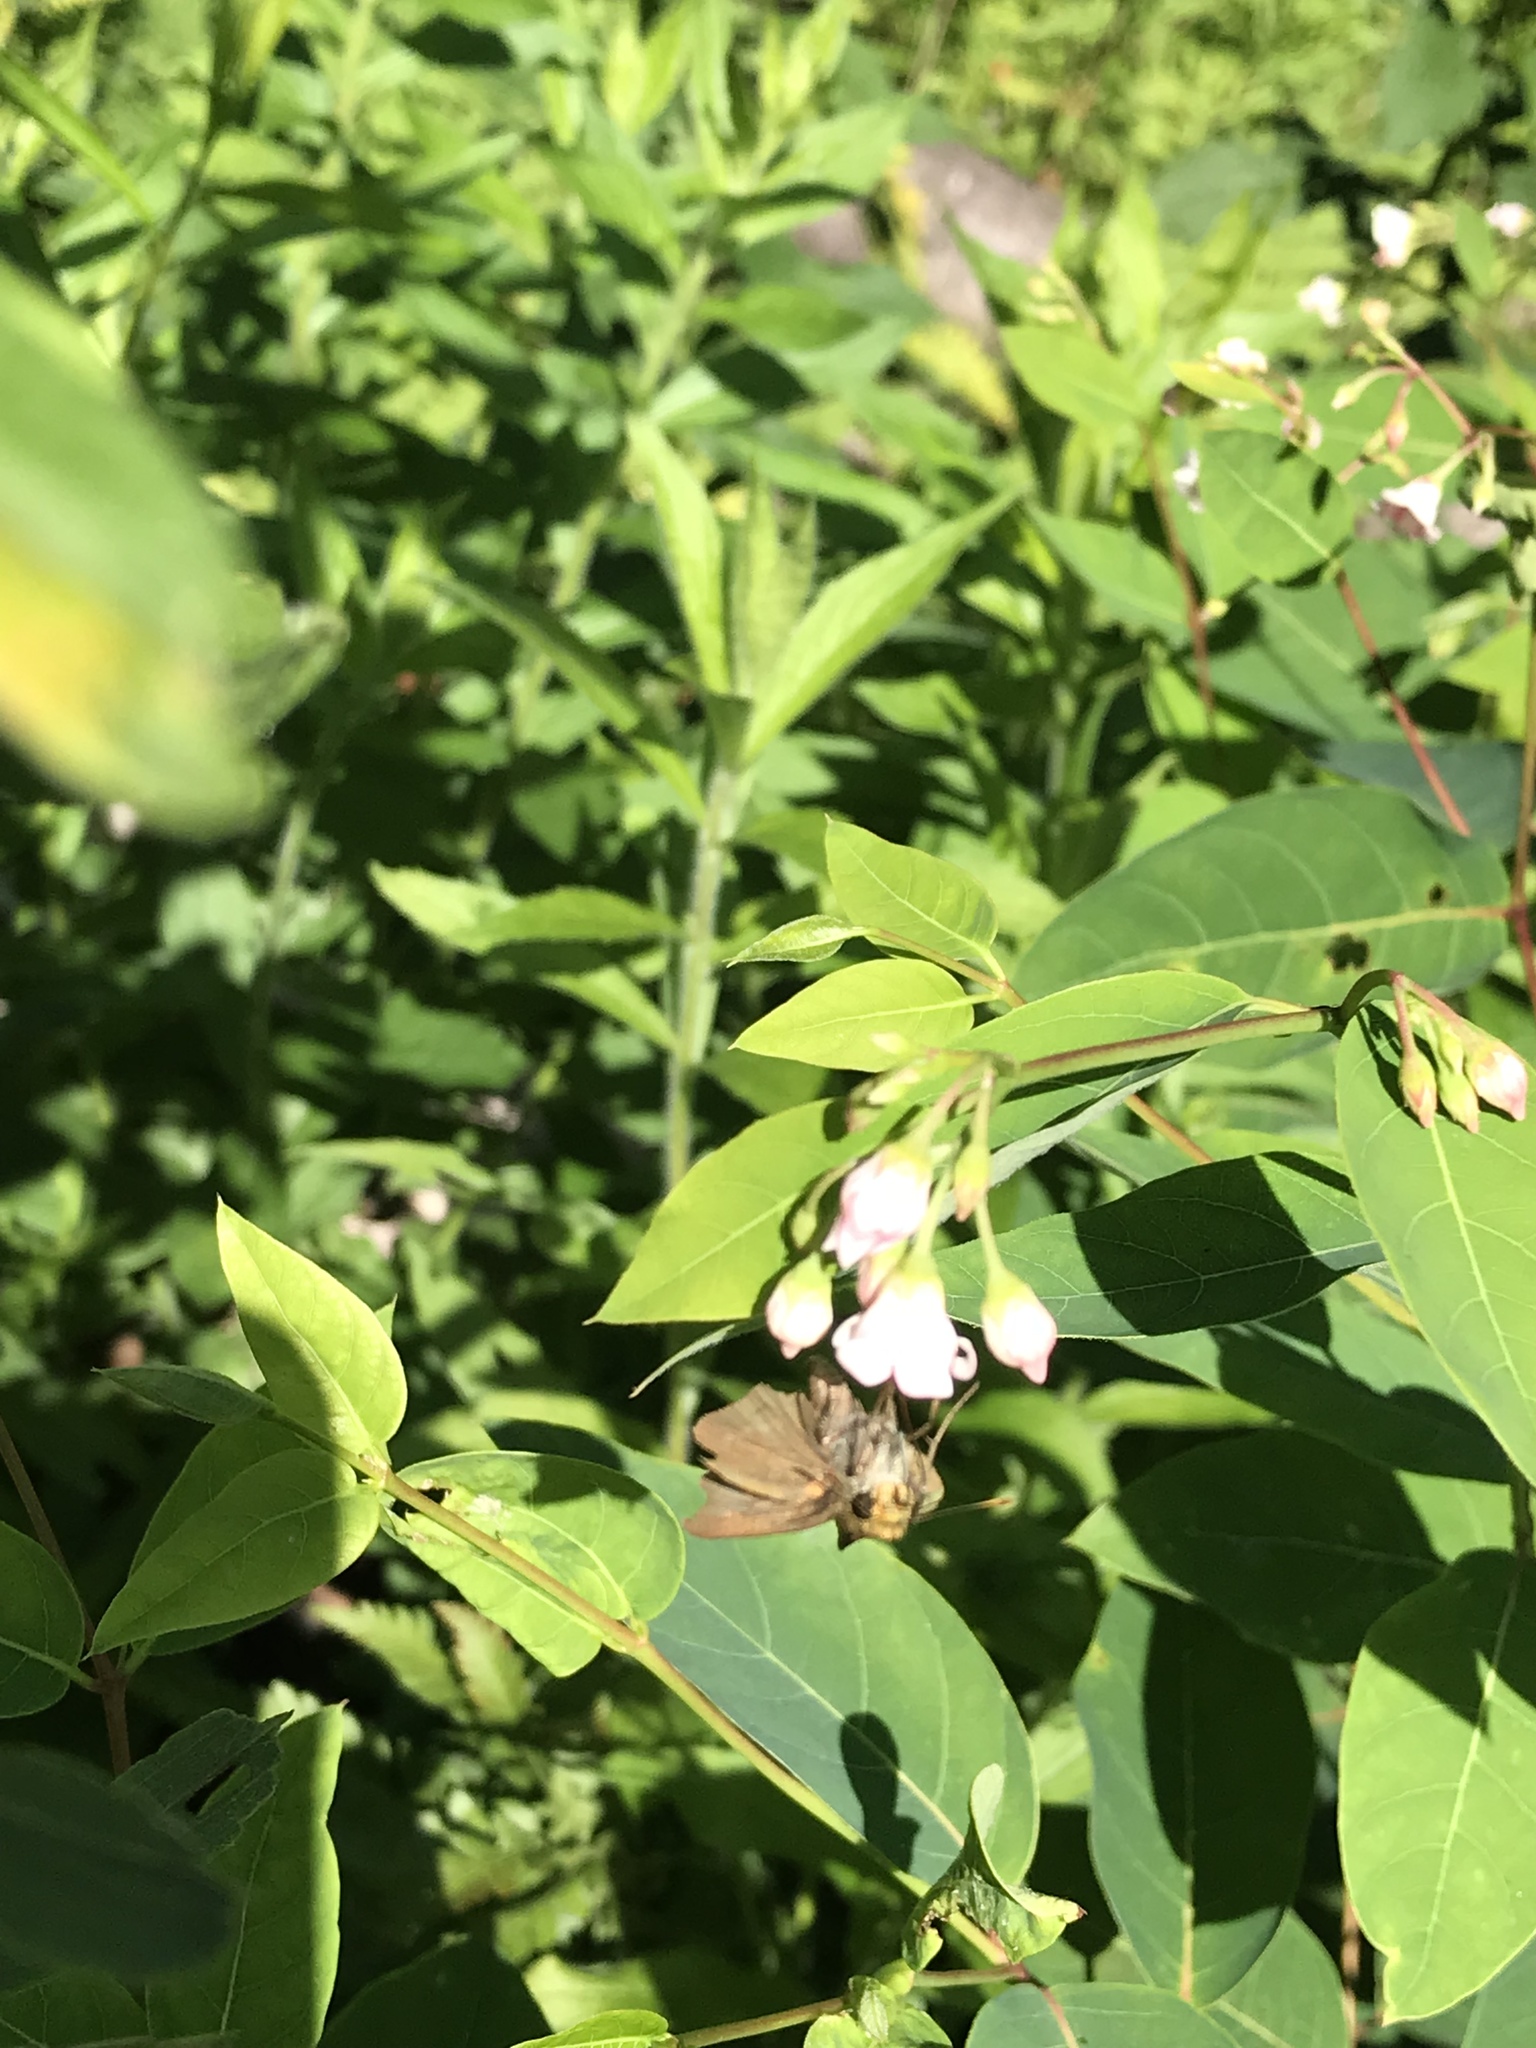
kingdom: Animalia
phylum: Arthropoda
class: Insecta
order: Lepidoptera
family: Hesperiidae
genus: Euphyes
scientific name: Euphyes vestris
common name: Dun skipper
